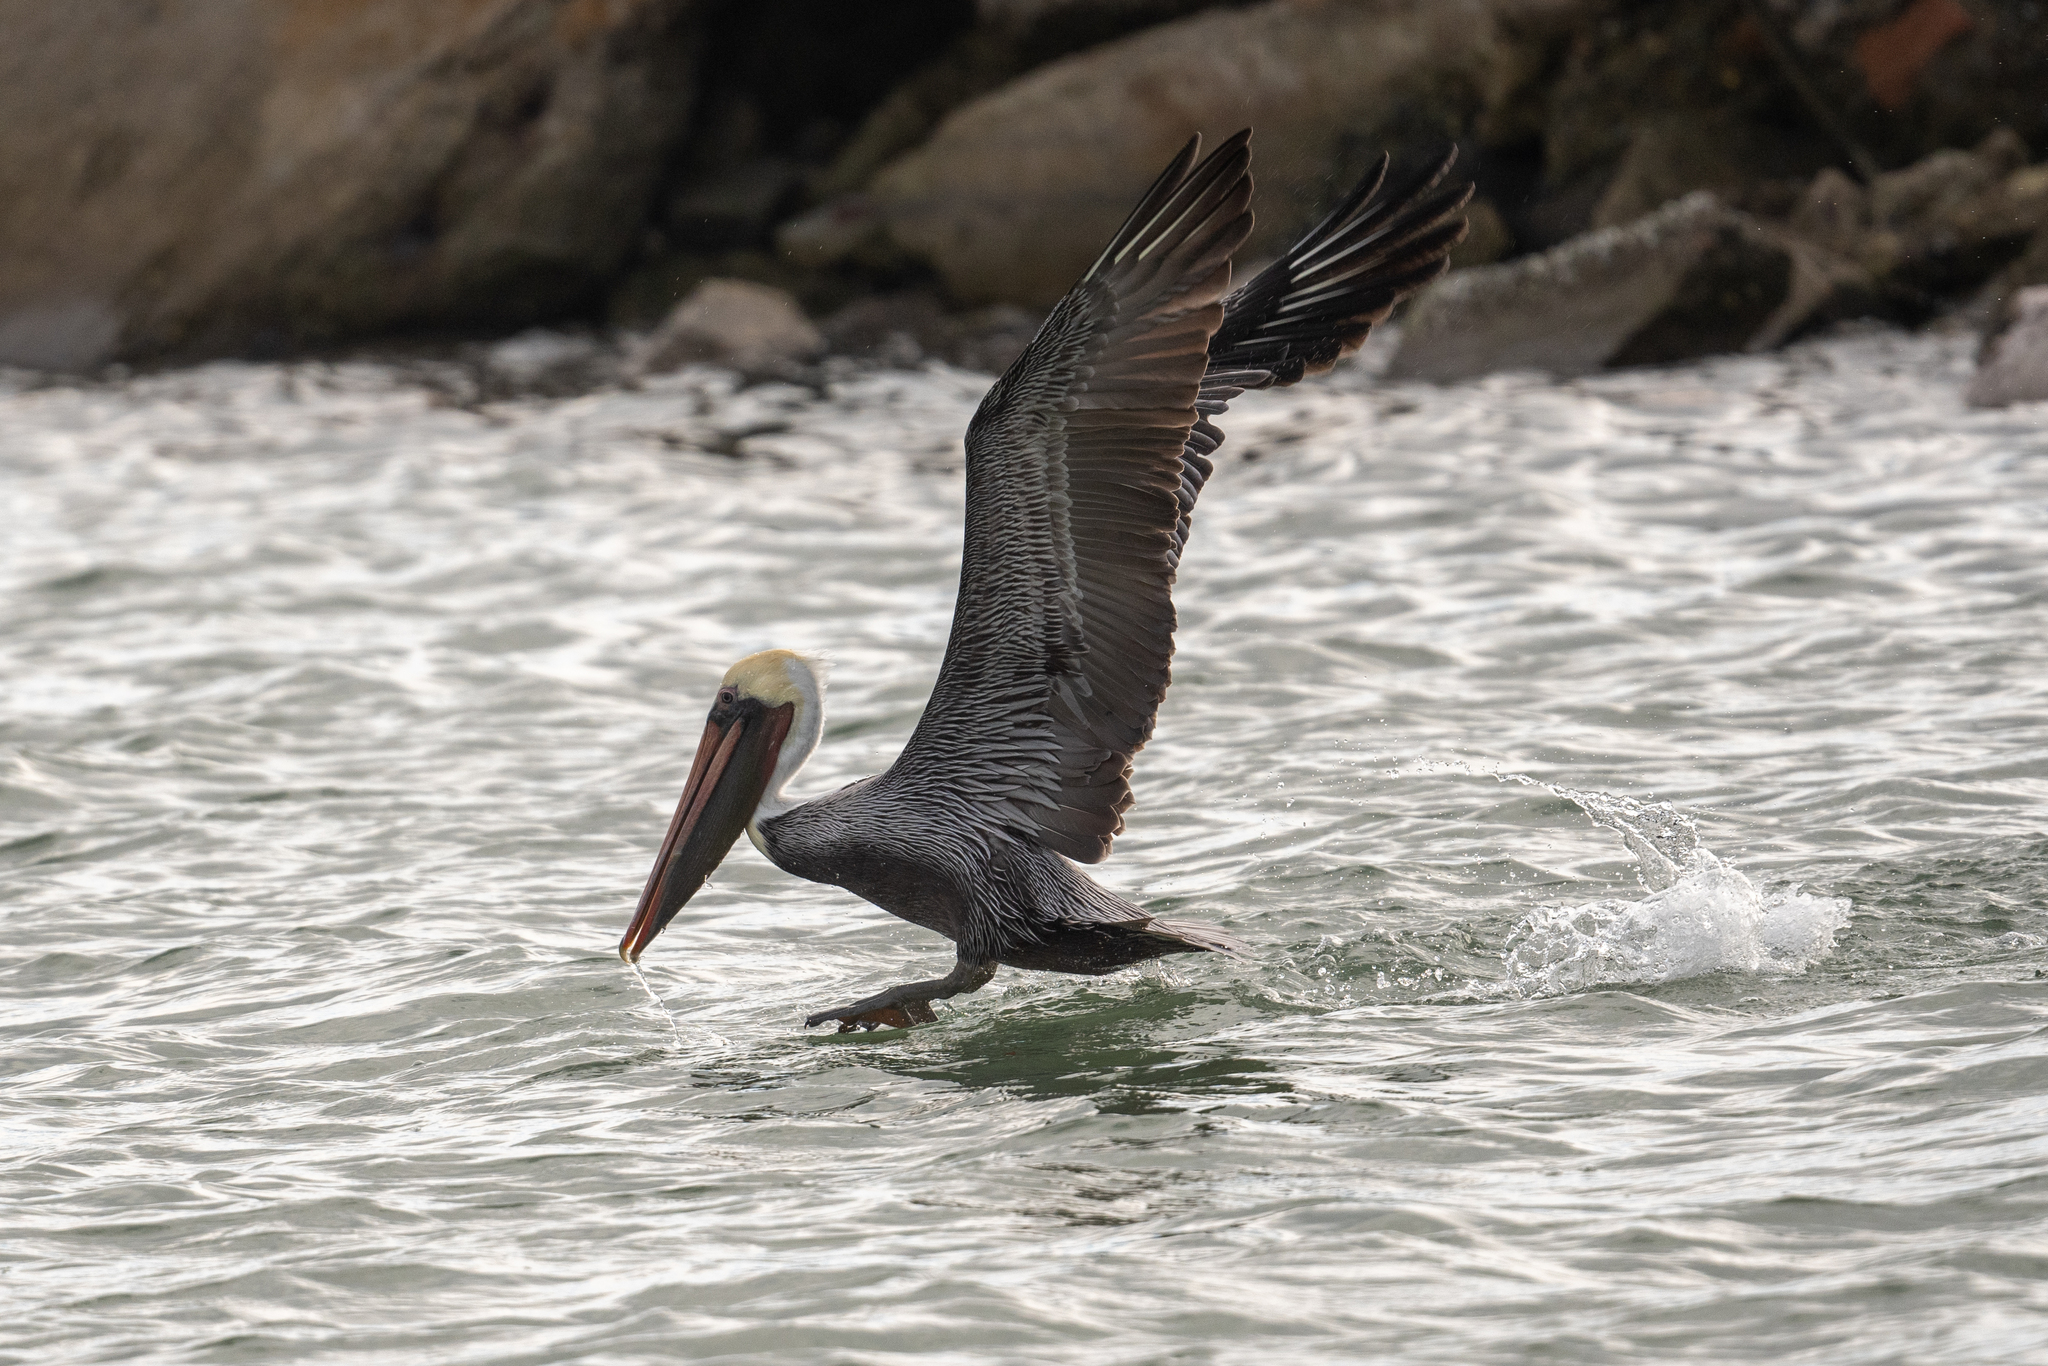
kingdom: Animalia
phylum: Chordata
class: Aves
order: Pelecaniformes
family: Pelecanidae
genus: Pelecanus
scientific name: Pelecanus occidentalis
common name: Brown pelican
